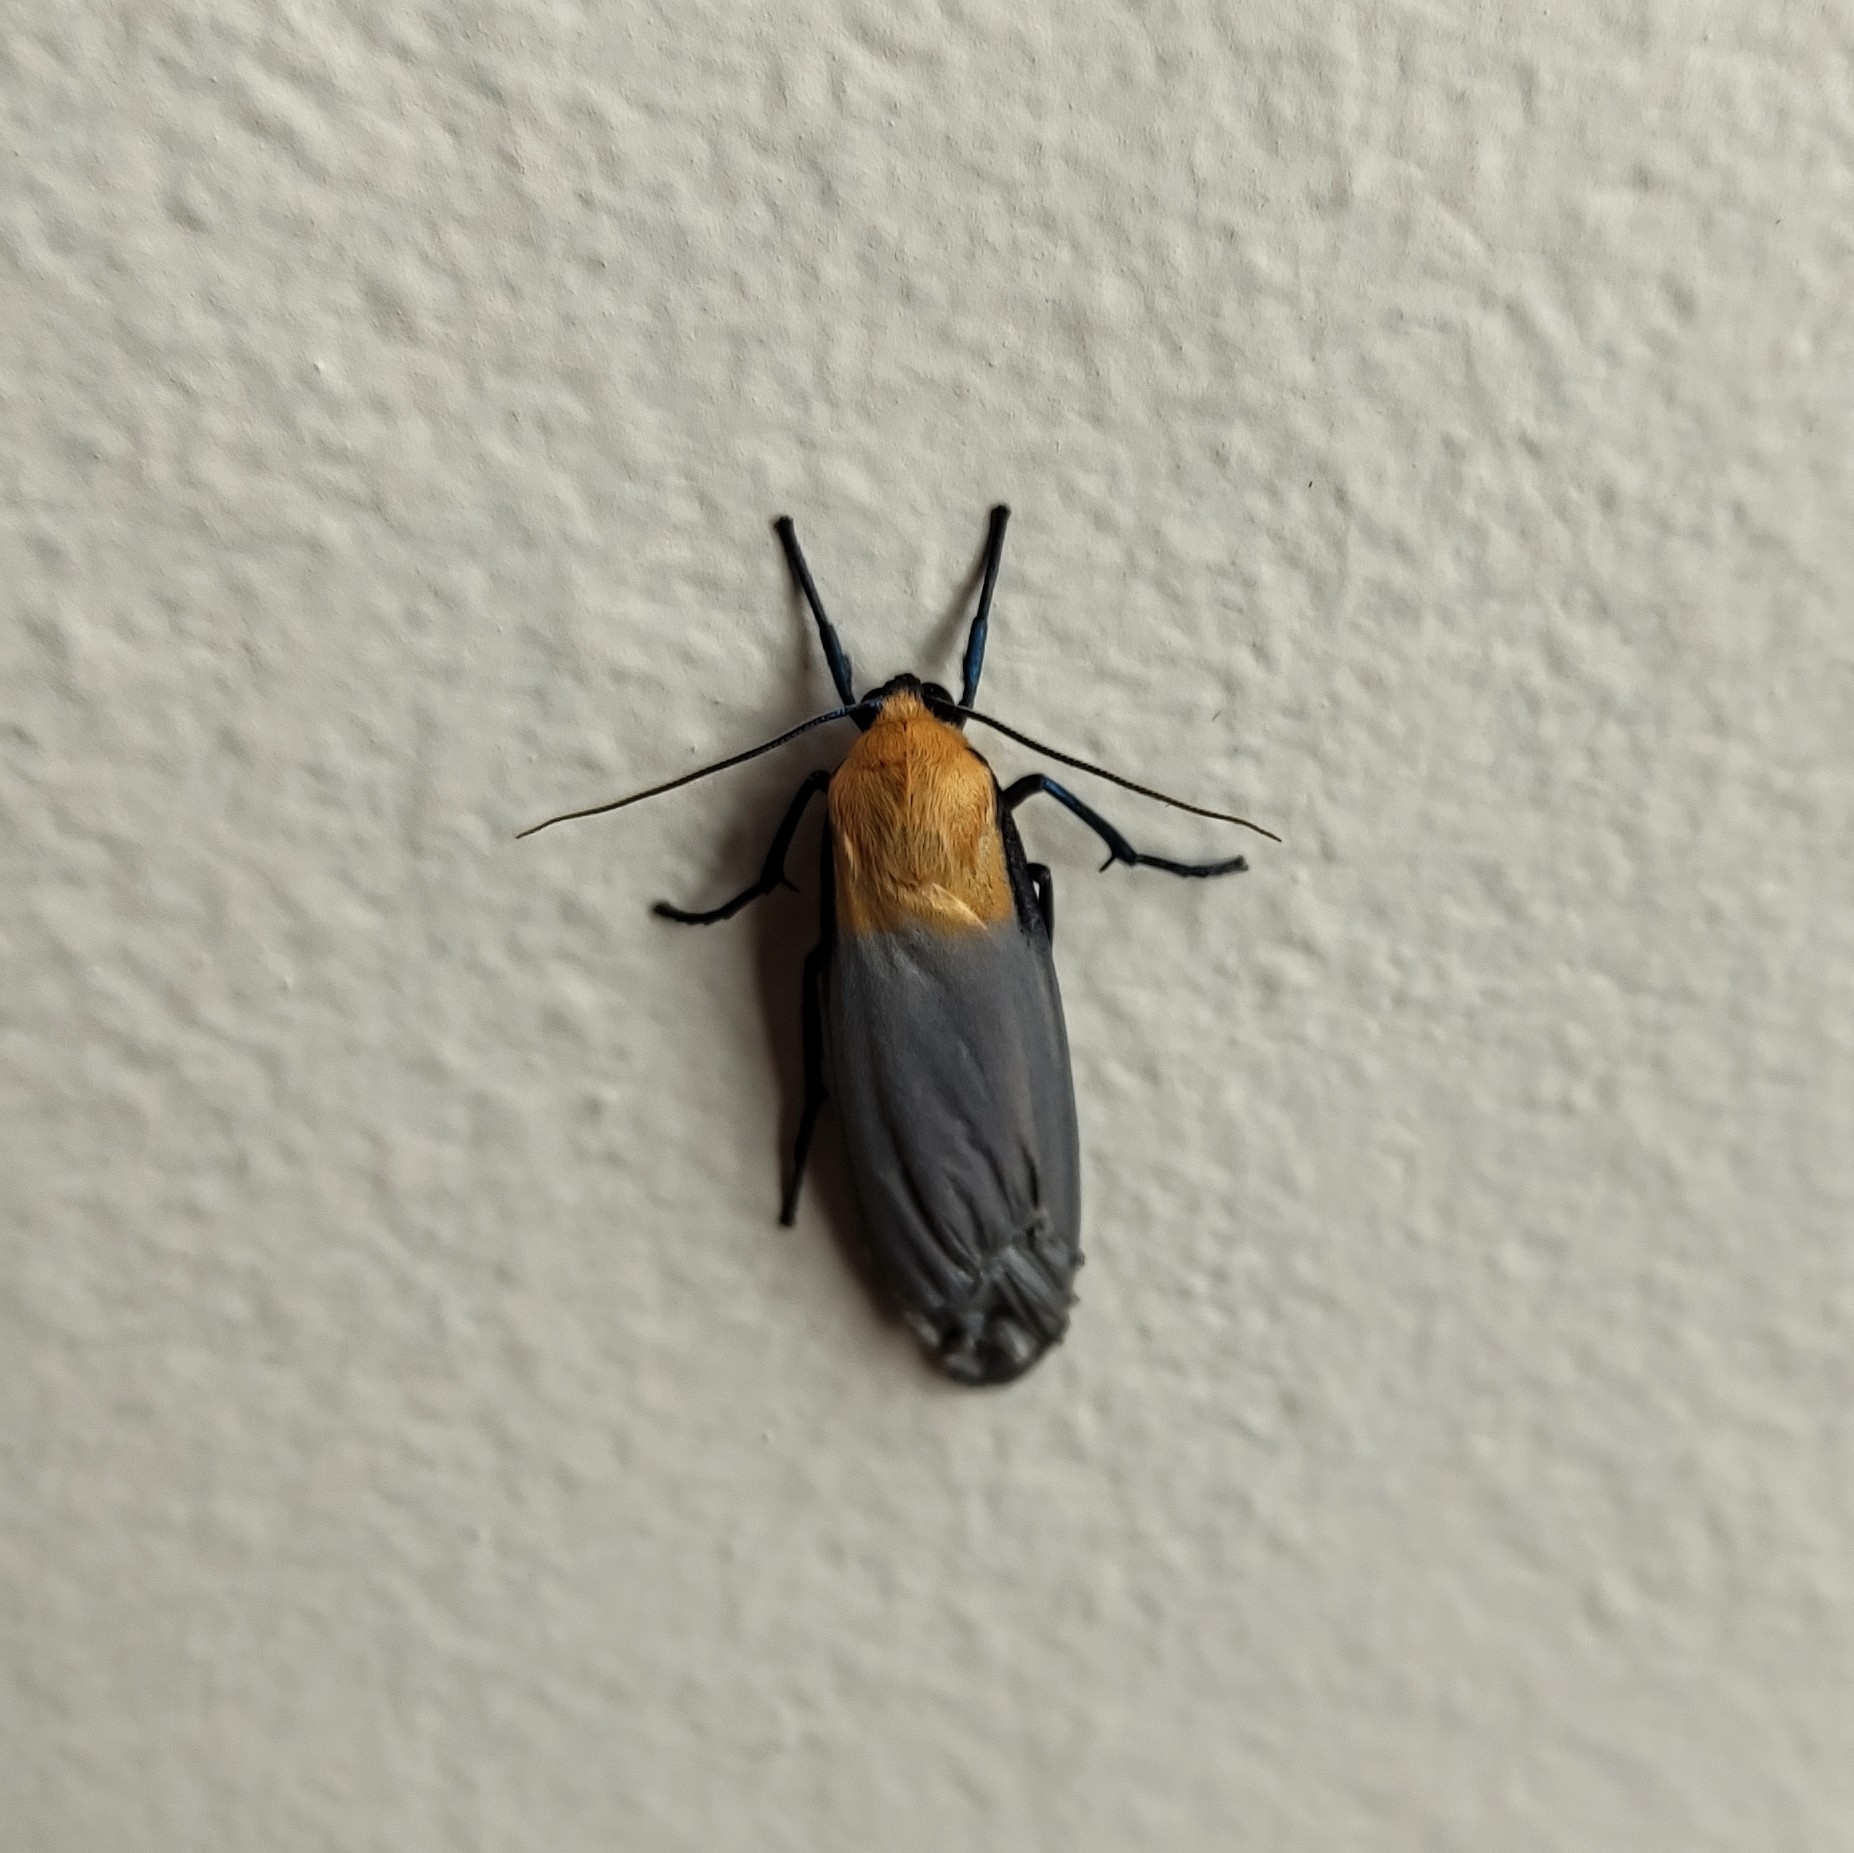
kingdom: Animalia
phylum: Arthropoda
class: Insecta
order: Lepidoptera
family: Erebidae
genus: Lithosia
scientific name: Lithosia quadra
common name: Four-spotted footman
